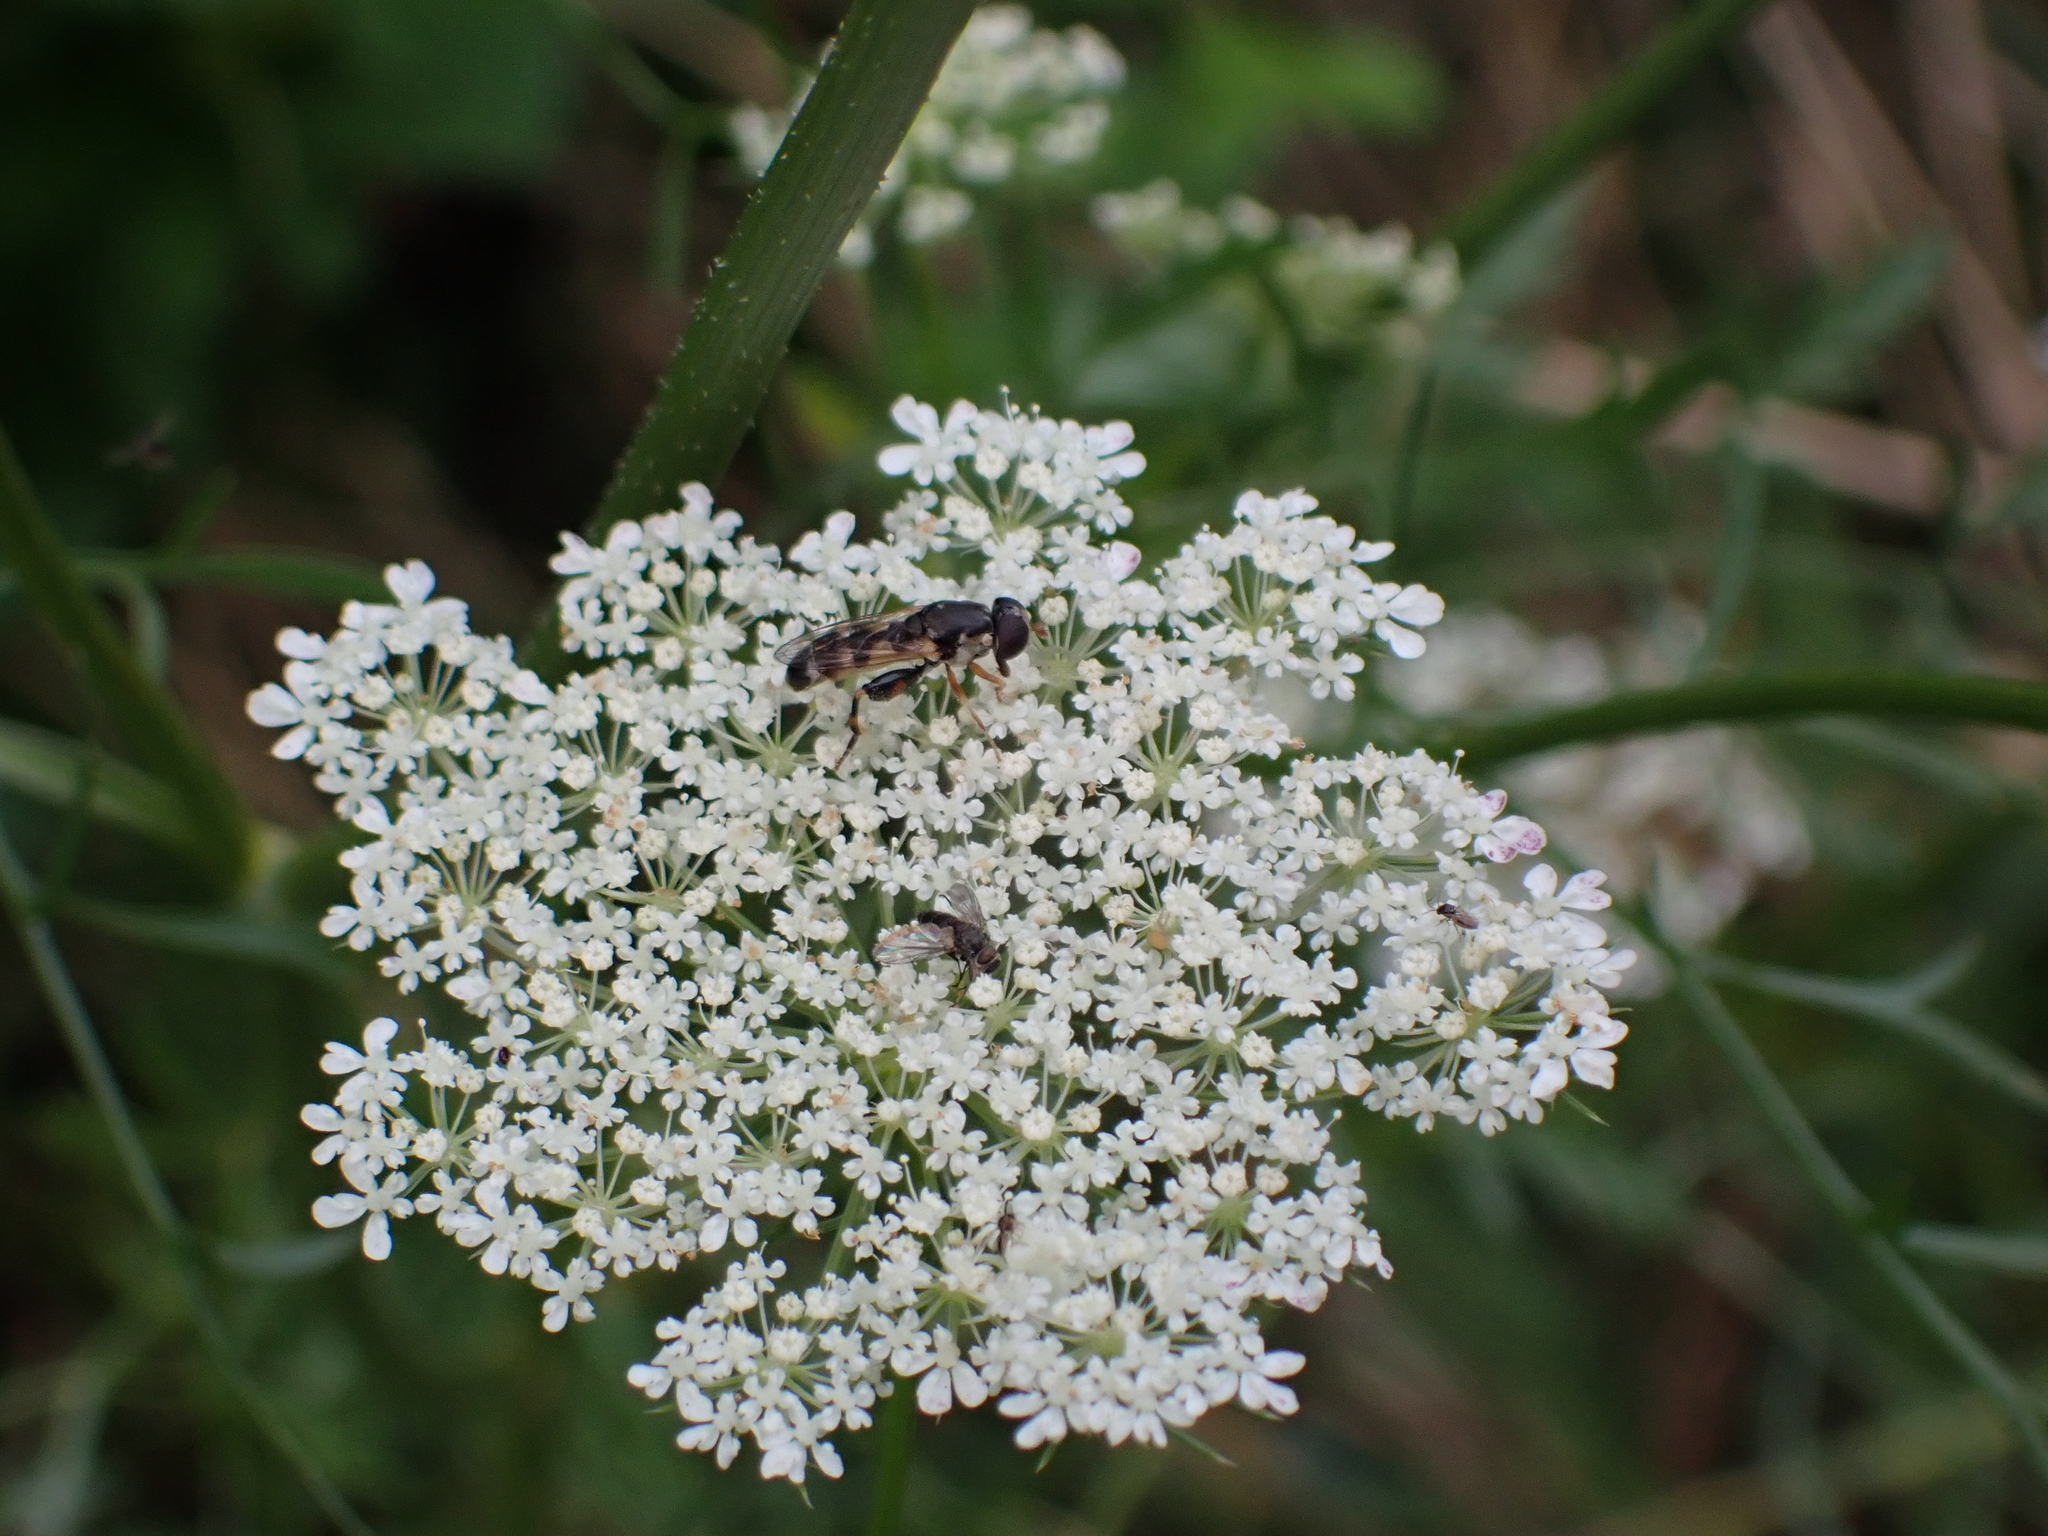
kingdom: Animalia
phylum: Arthropoda
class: Insecta
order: Diptera
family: Syrphidae
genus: Syritta
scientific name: Syritta pipiens
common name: Hover fly
